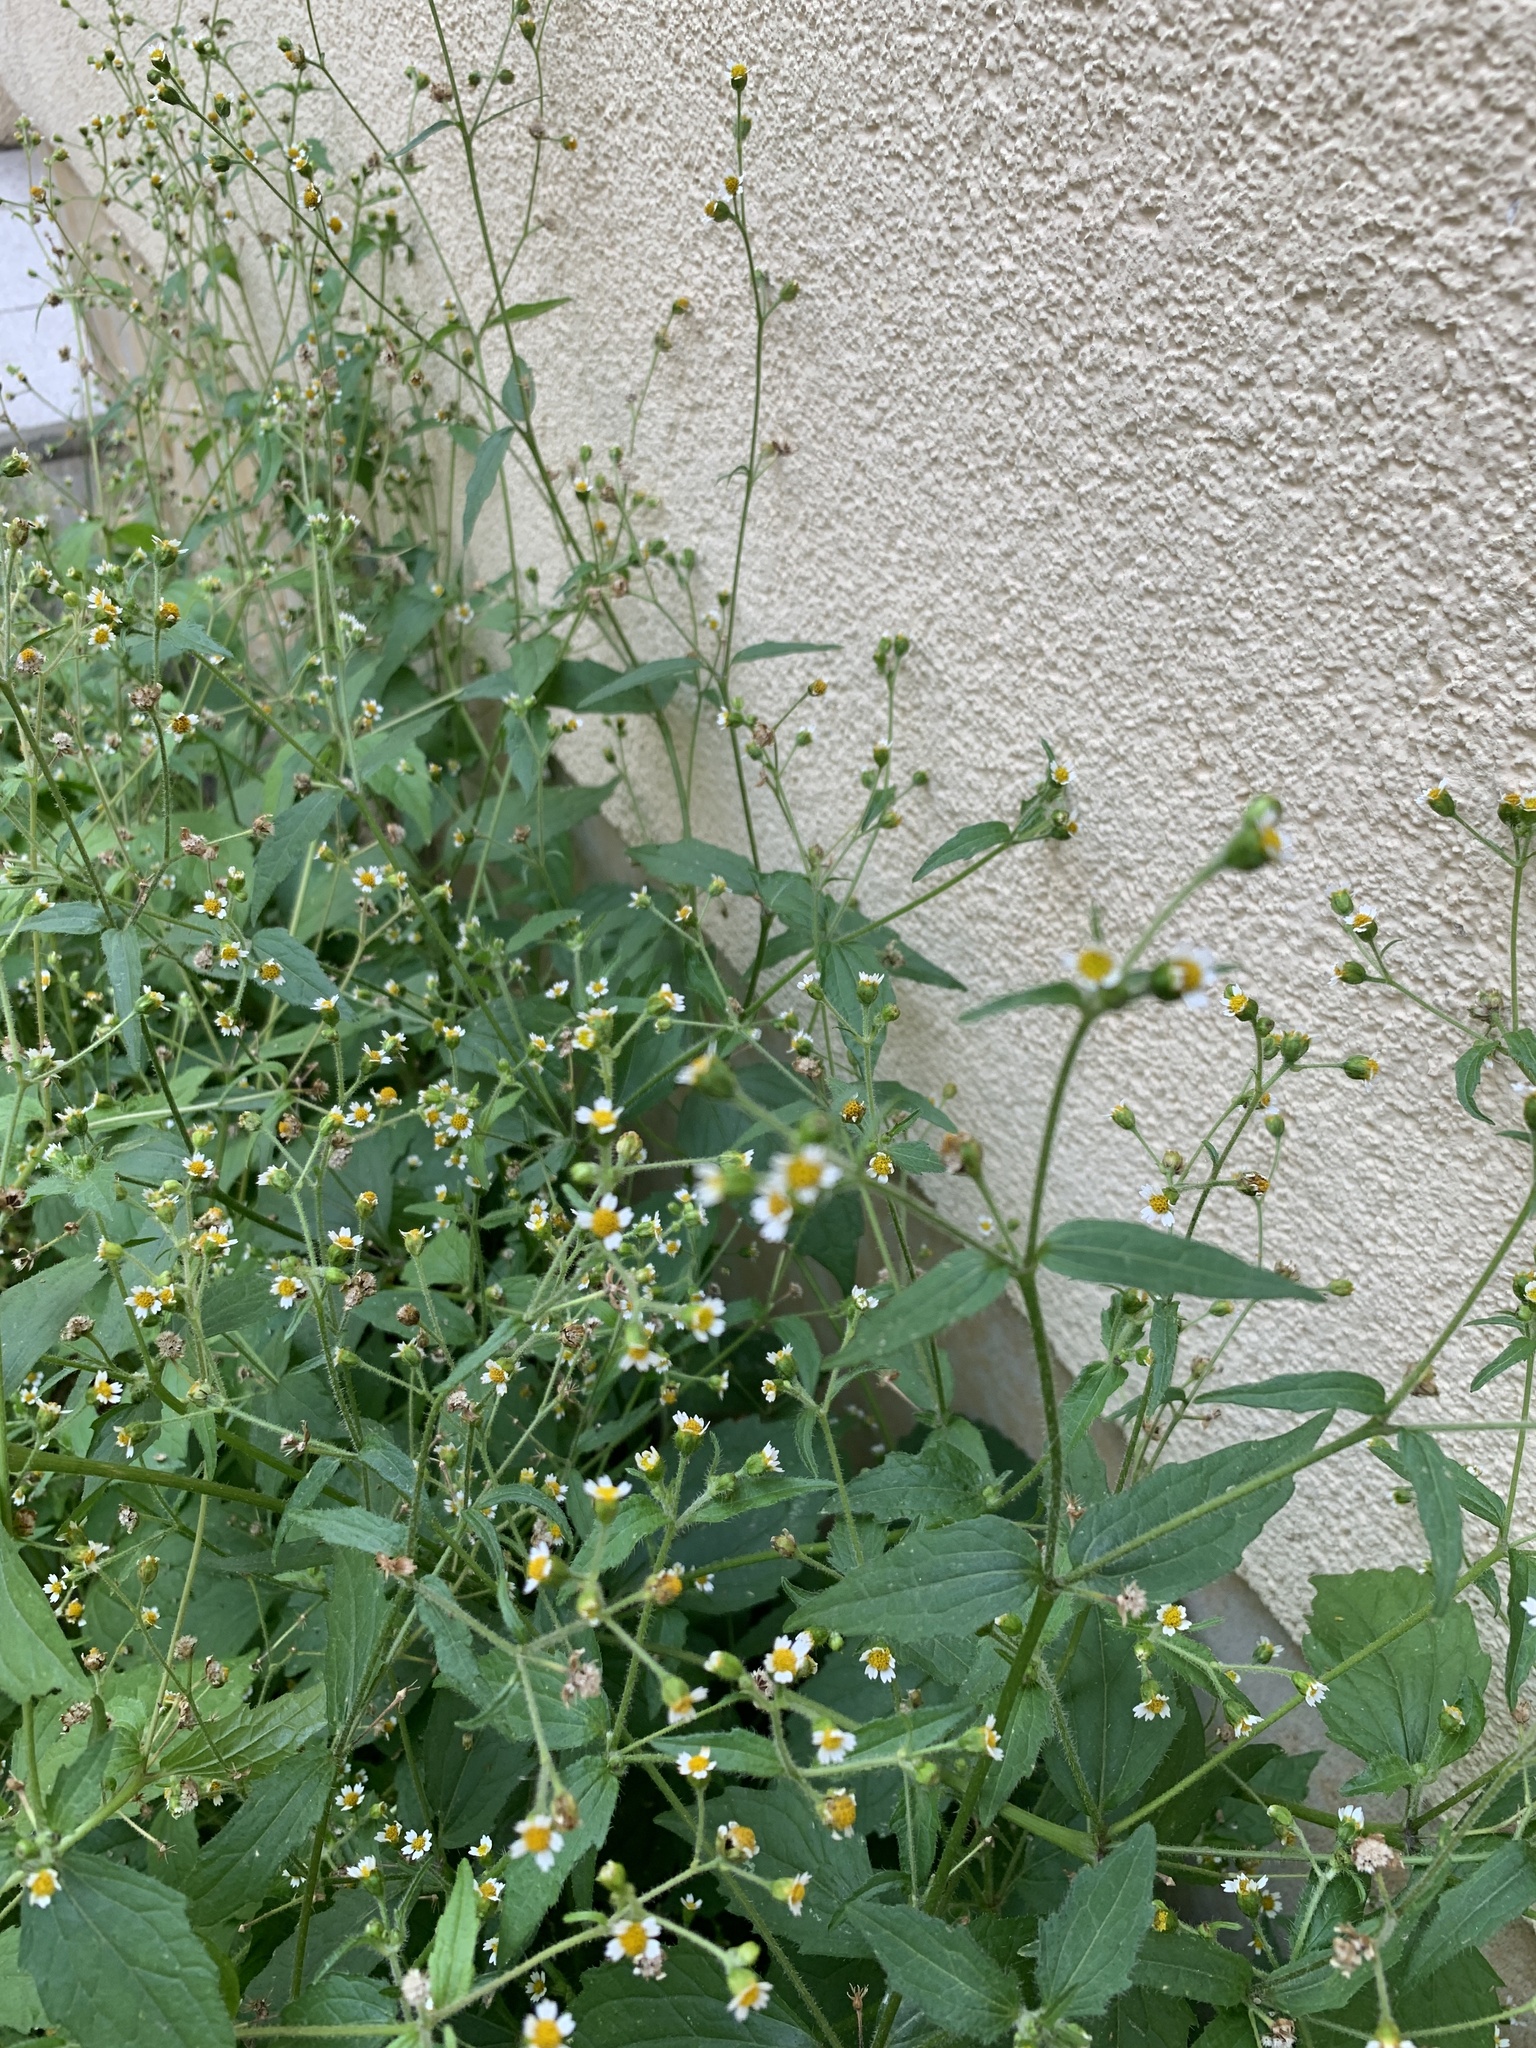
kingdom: Plantae
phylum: Tracheophyta
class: Magnoliopsida
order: Asterales
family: Asteraceae
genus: Galinsoga
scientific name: Galinsoga quadriradiata
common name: Shaggy soldier
